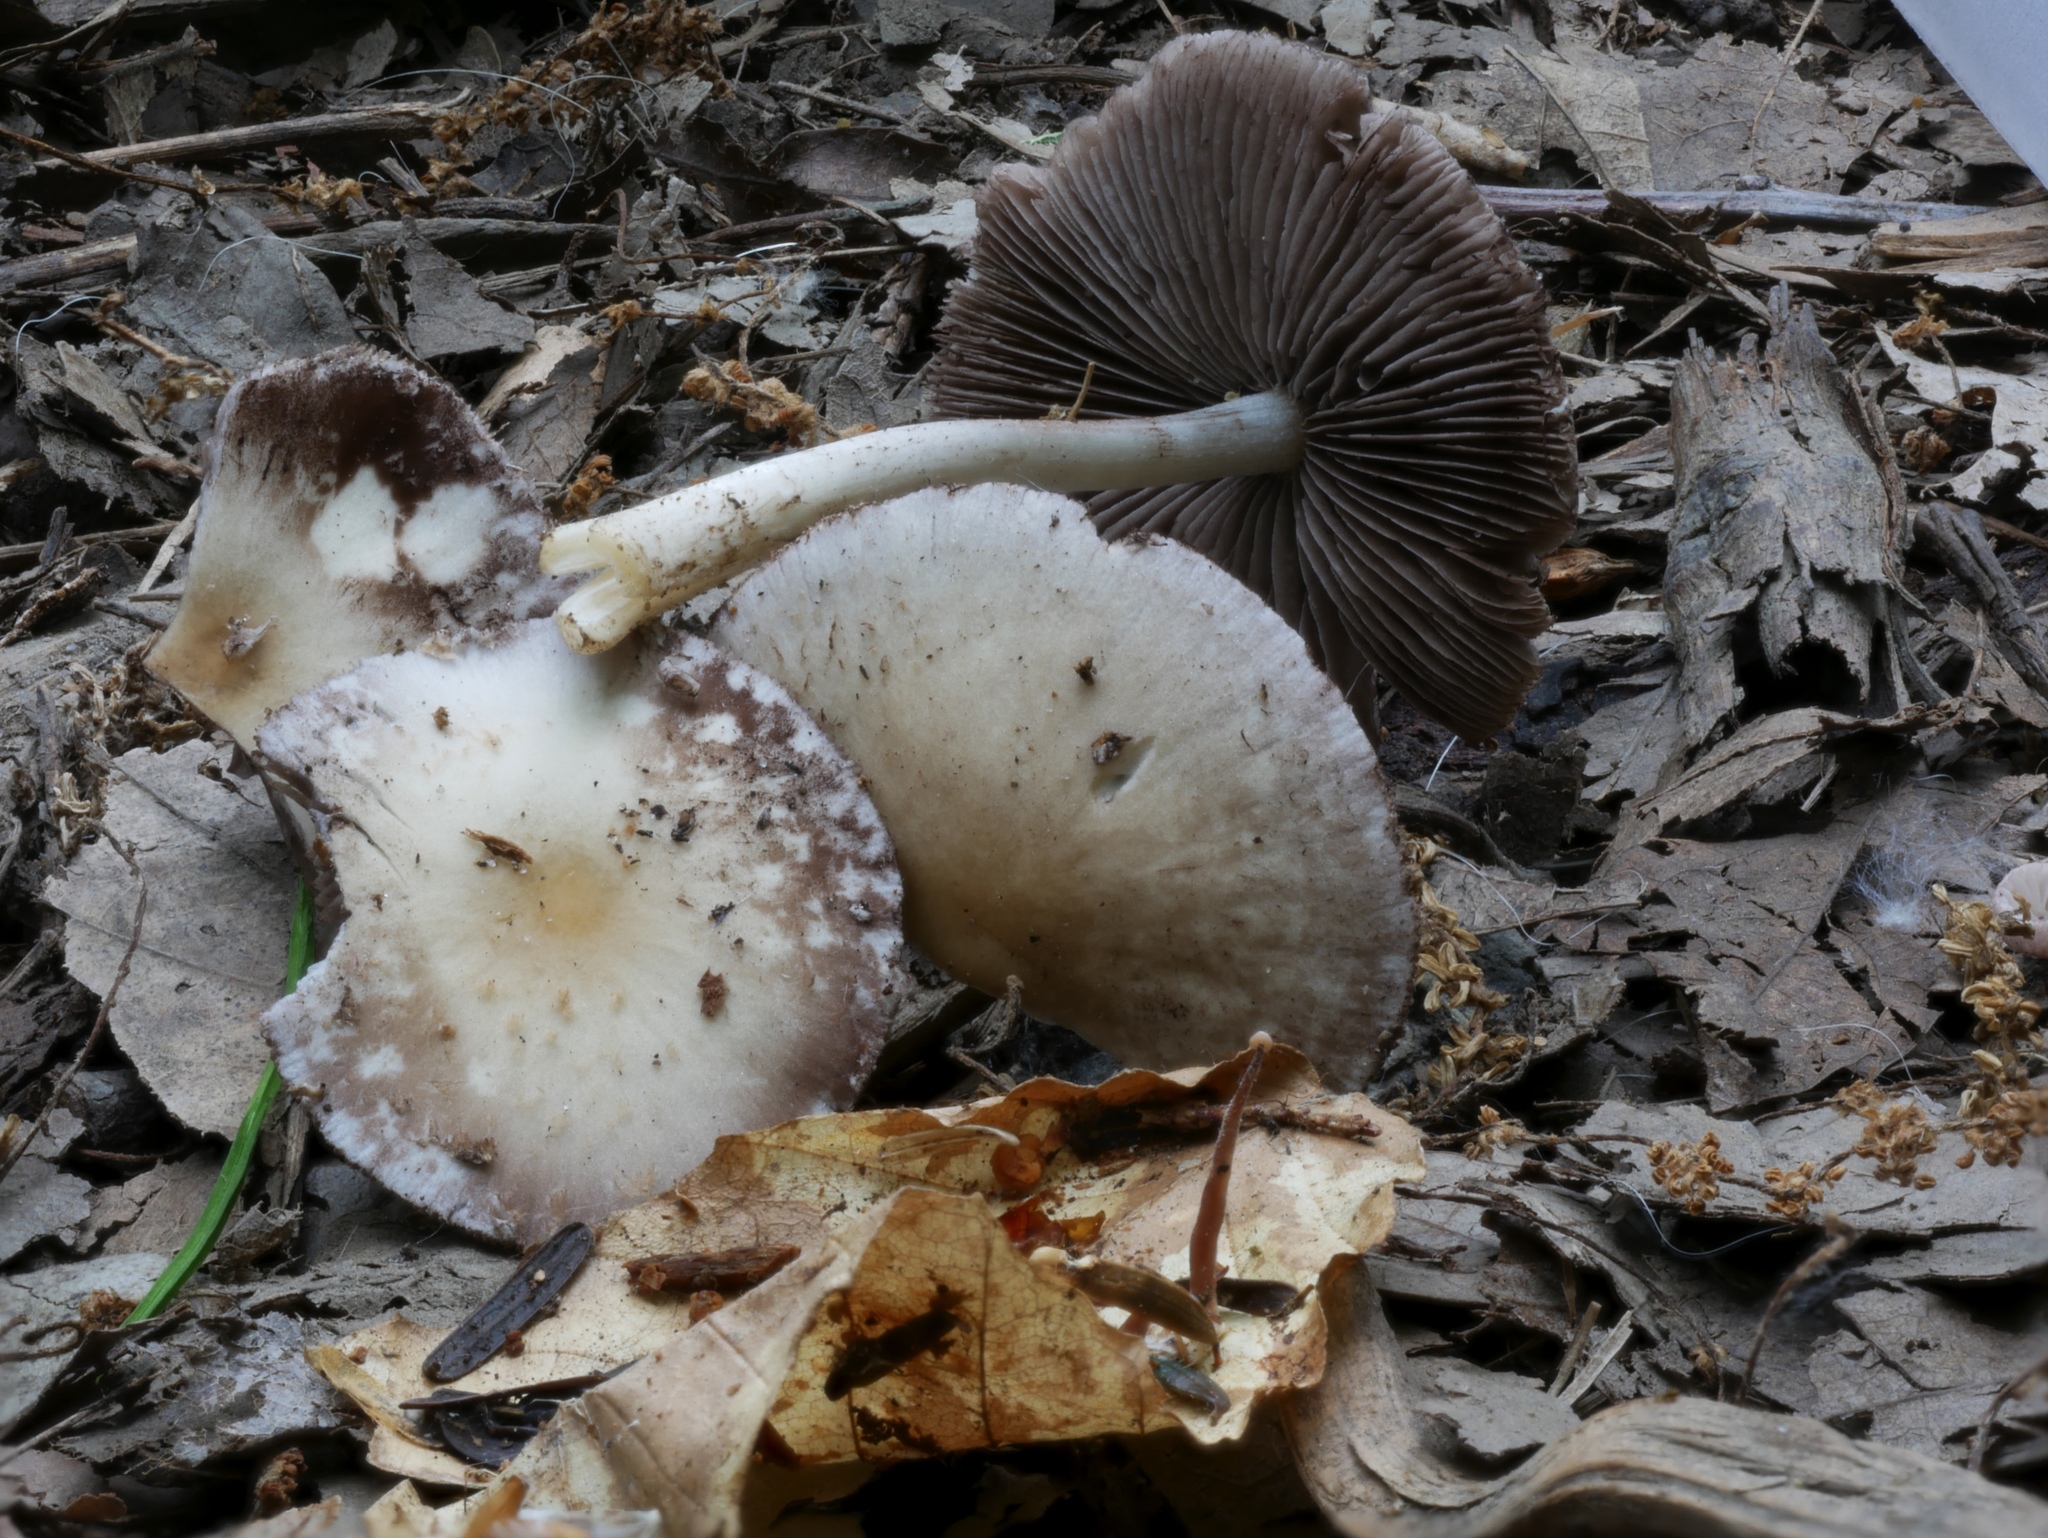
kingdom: Fungi
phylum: Basidiomycota
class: Agaricomycetes
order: Agaricales
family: Psathyrellaceae
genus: Candolleomyces
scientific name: Candolleomyces candolleanus
